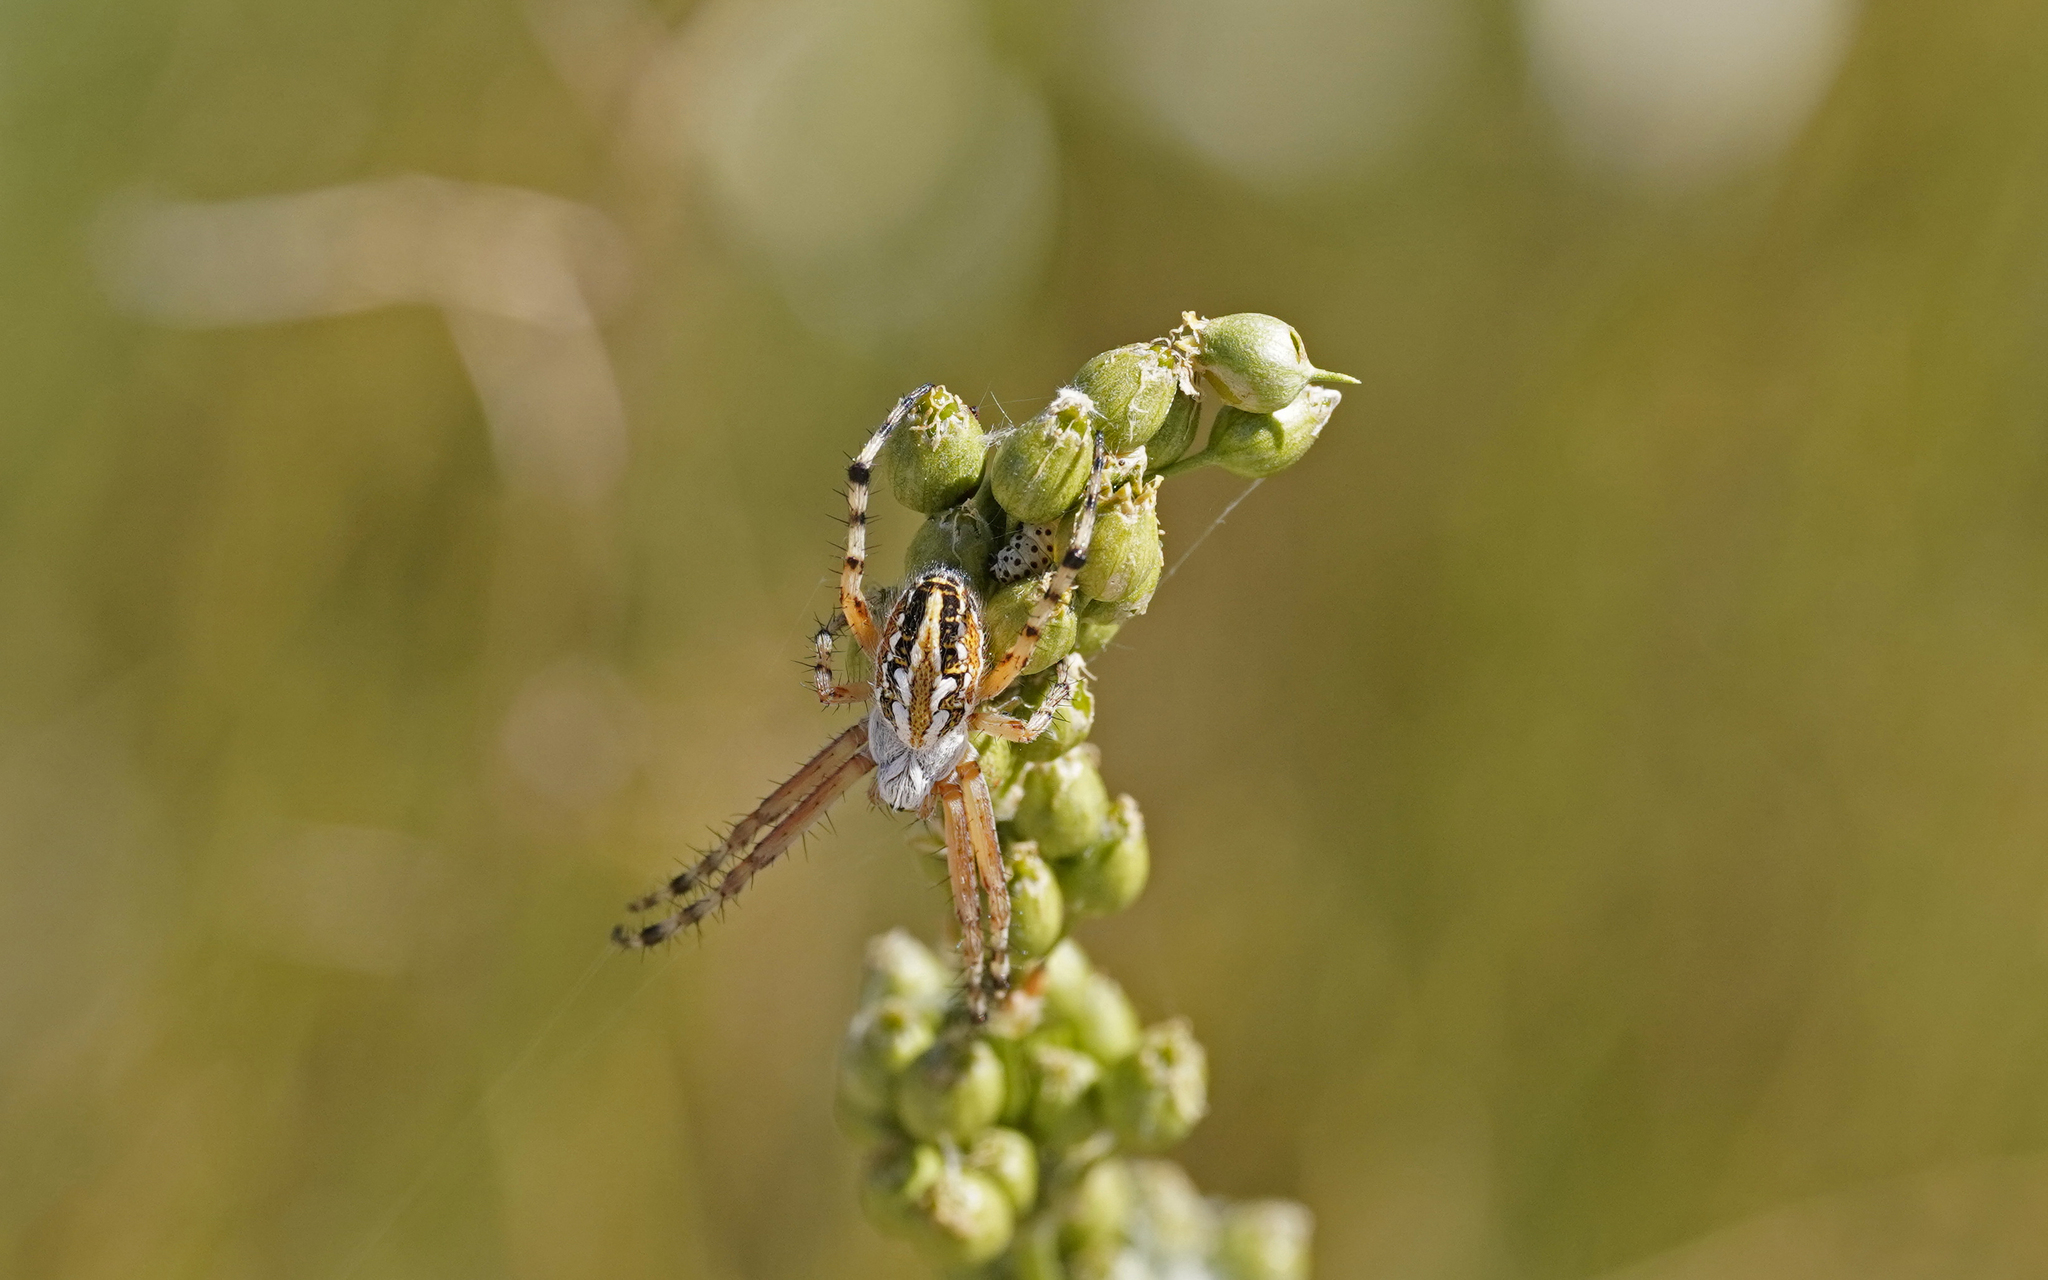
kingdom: Animalia
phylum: Arthropoda
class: Arachnida
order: Araneae
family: Araneidae
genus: Aculepeira
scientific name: Aculepeira armida
